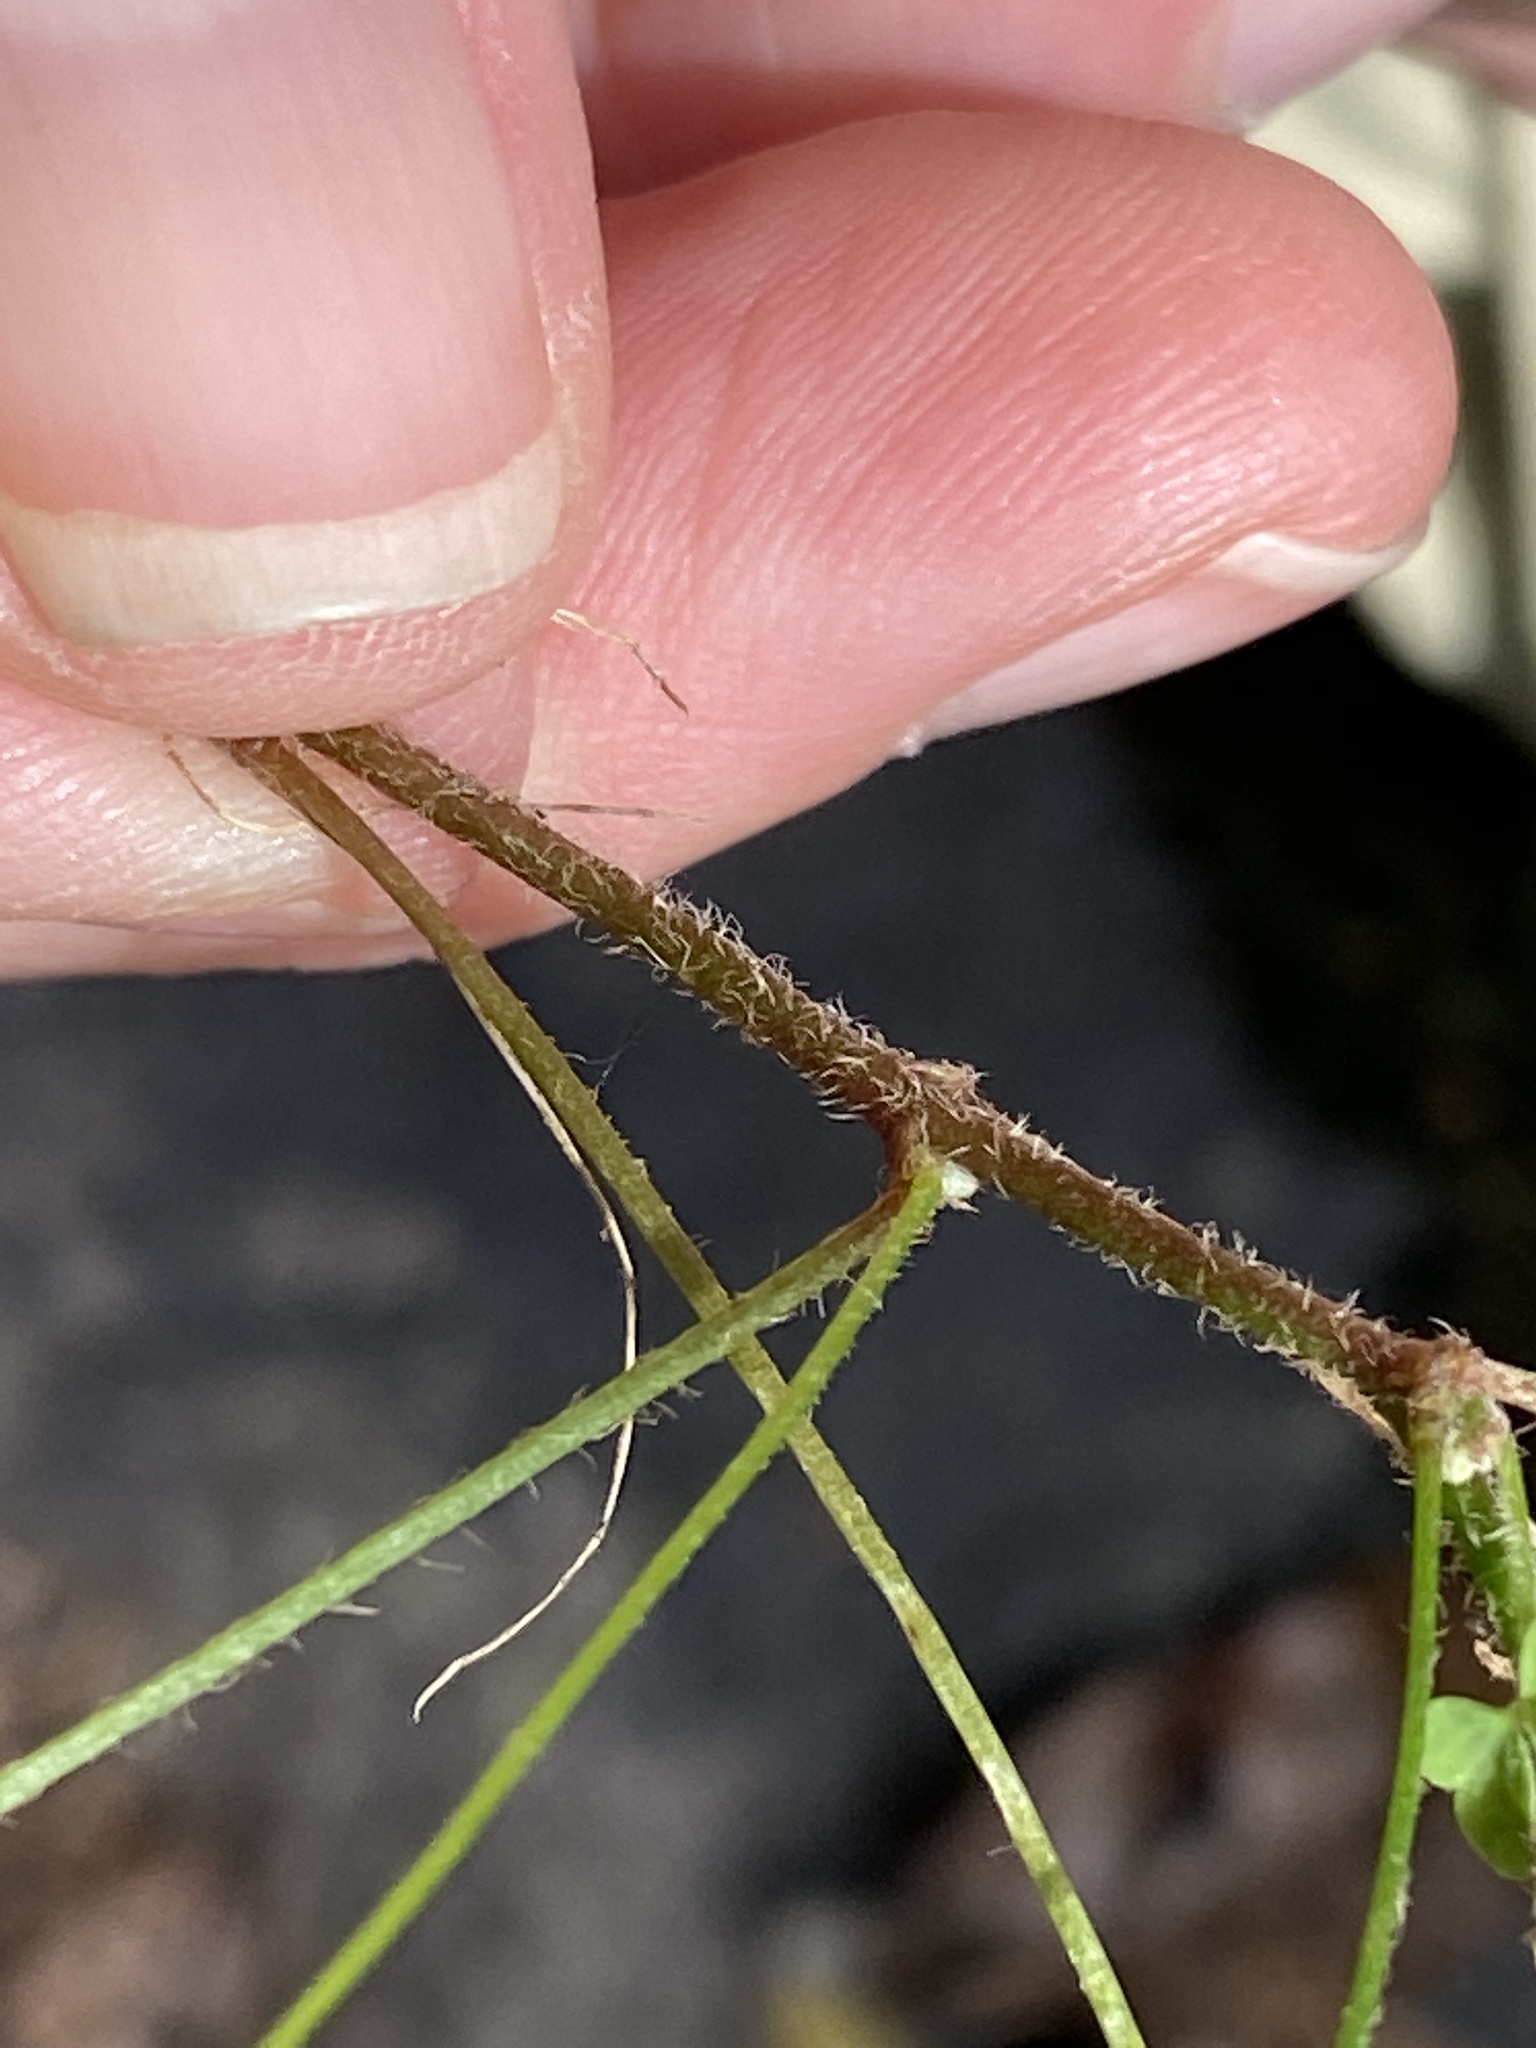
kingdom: Plantae
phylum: Tracheophyta
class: Magnoliopsida
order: Oxalidales
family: Oxalidaceae
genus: Oxalis
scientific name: Oxalis colorea
